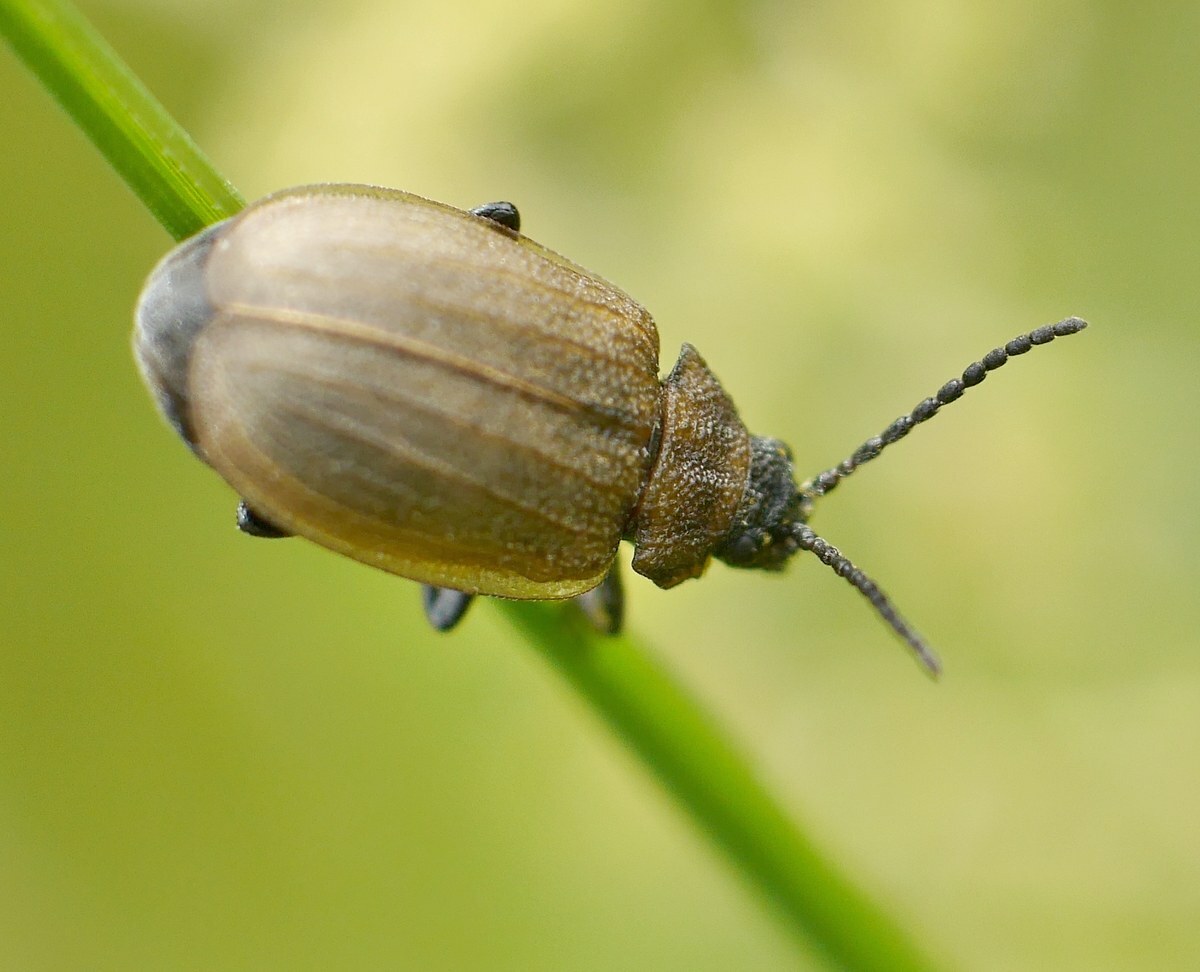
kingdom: Animalia
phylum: Arthropoda
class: Insecta
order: Coleoptera
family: Chrysomelidae
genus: Galeruca
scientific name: Galeruca pomonae
